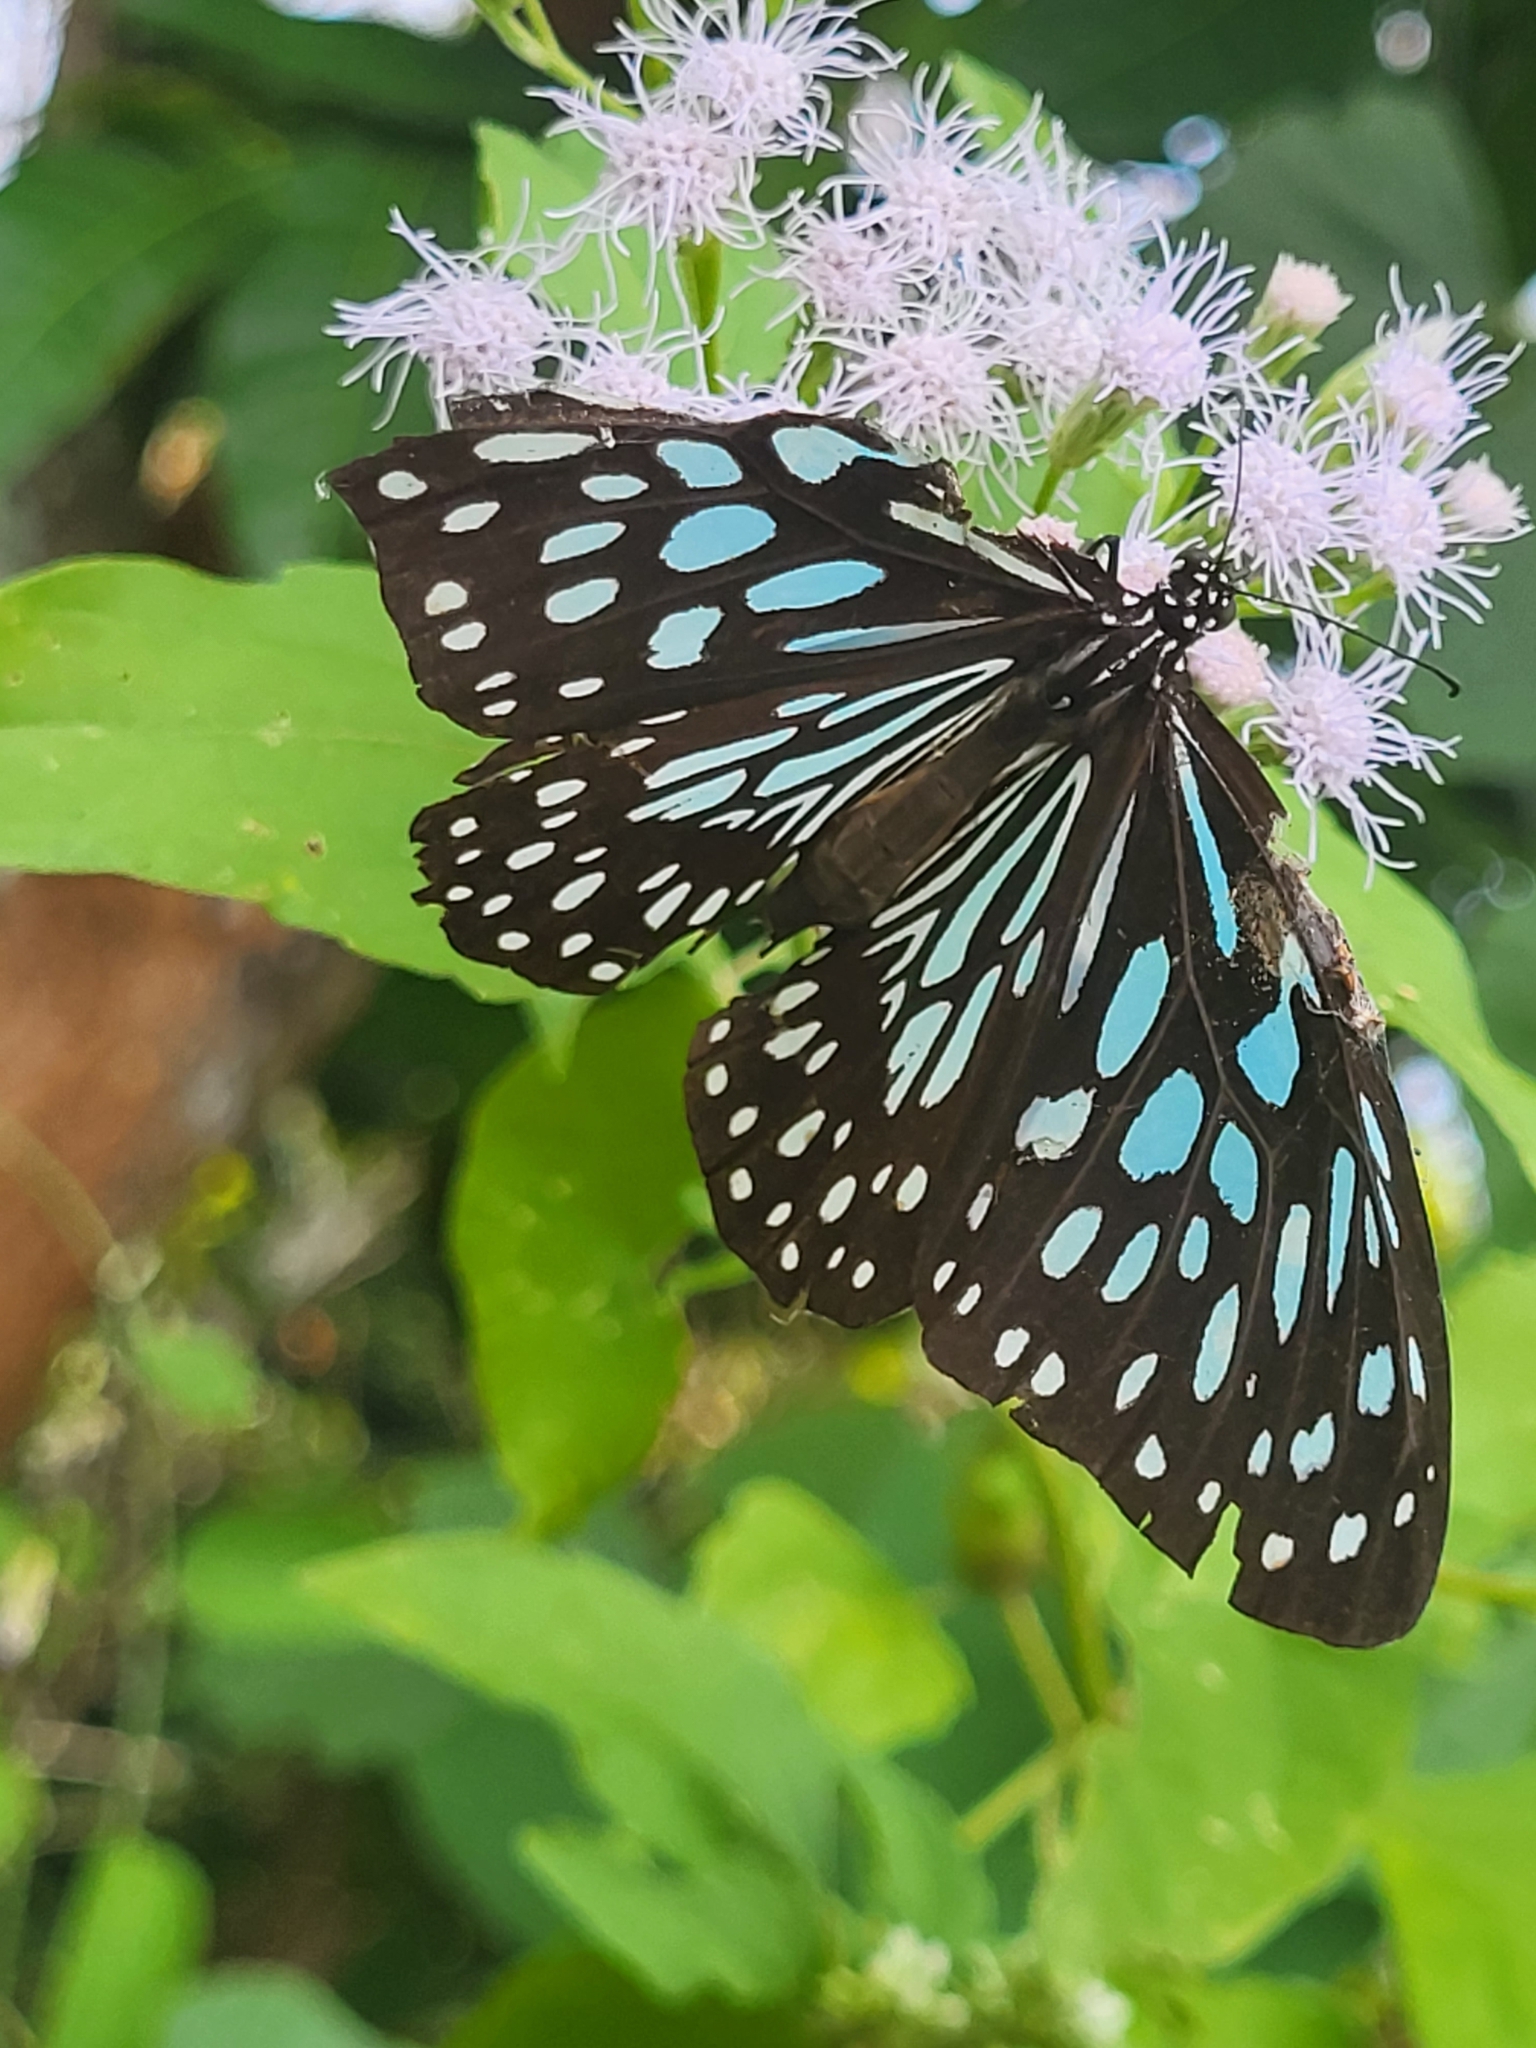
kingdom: Animalia
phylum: Arthropoda
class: Insecta
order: Lepidoptera
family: Nymphalidae
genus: Tirumala
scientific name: Tirumala septentrionis
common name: Dark blue tiger butterfly
